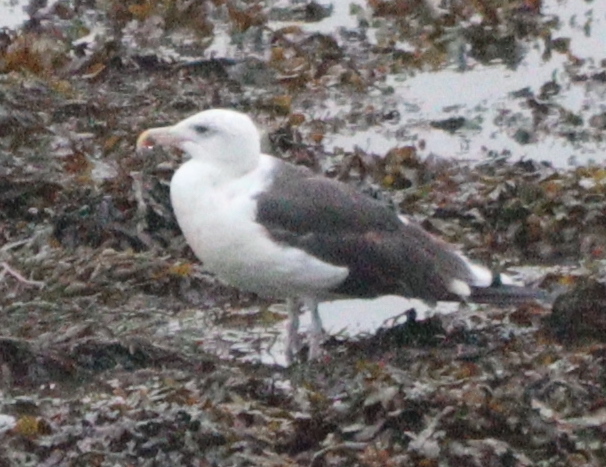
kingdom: Animalia
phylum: Chordata
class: Aves
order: Charadriiformes
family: Laridae
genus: Larus
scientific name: Larus marinus
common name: Great black-backed gull
